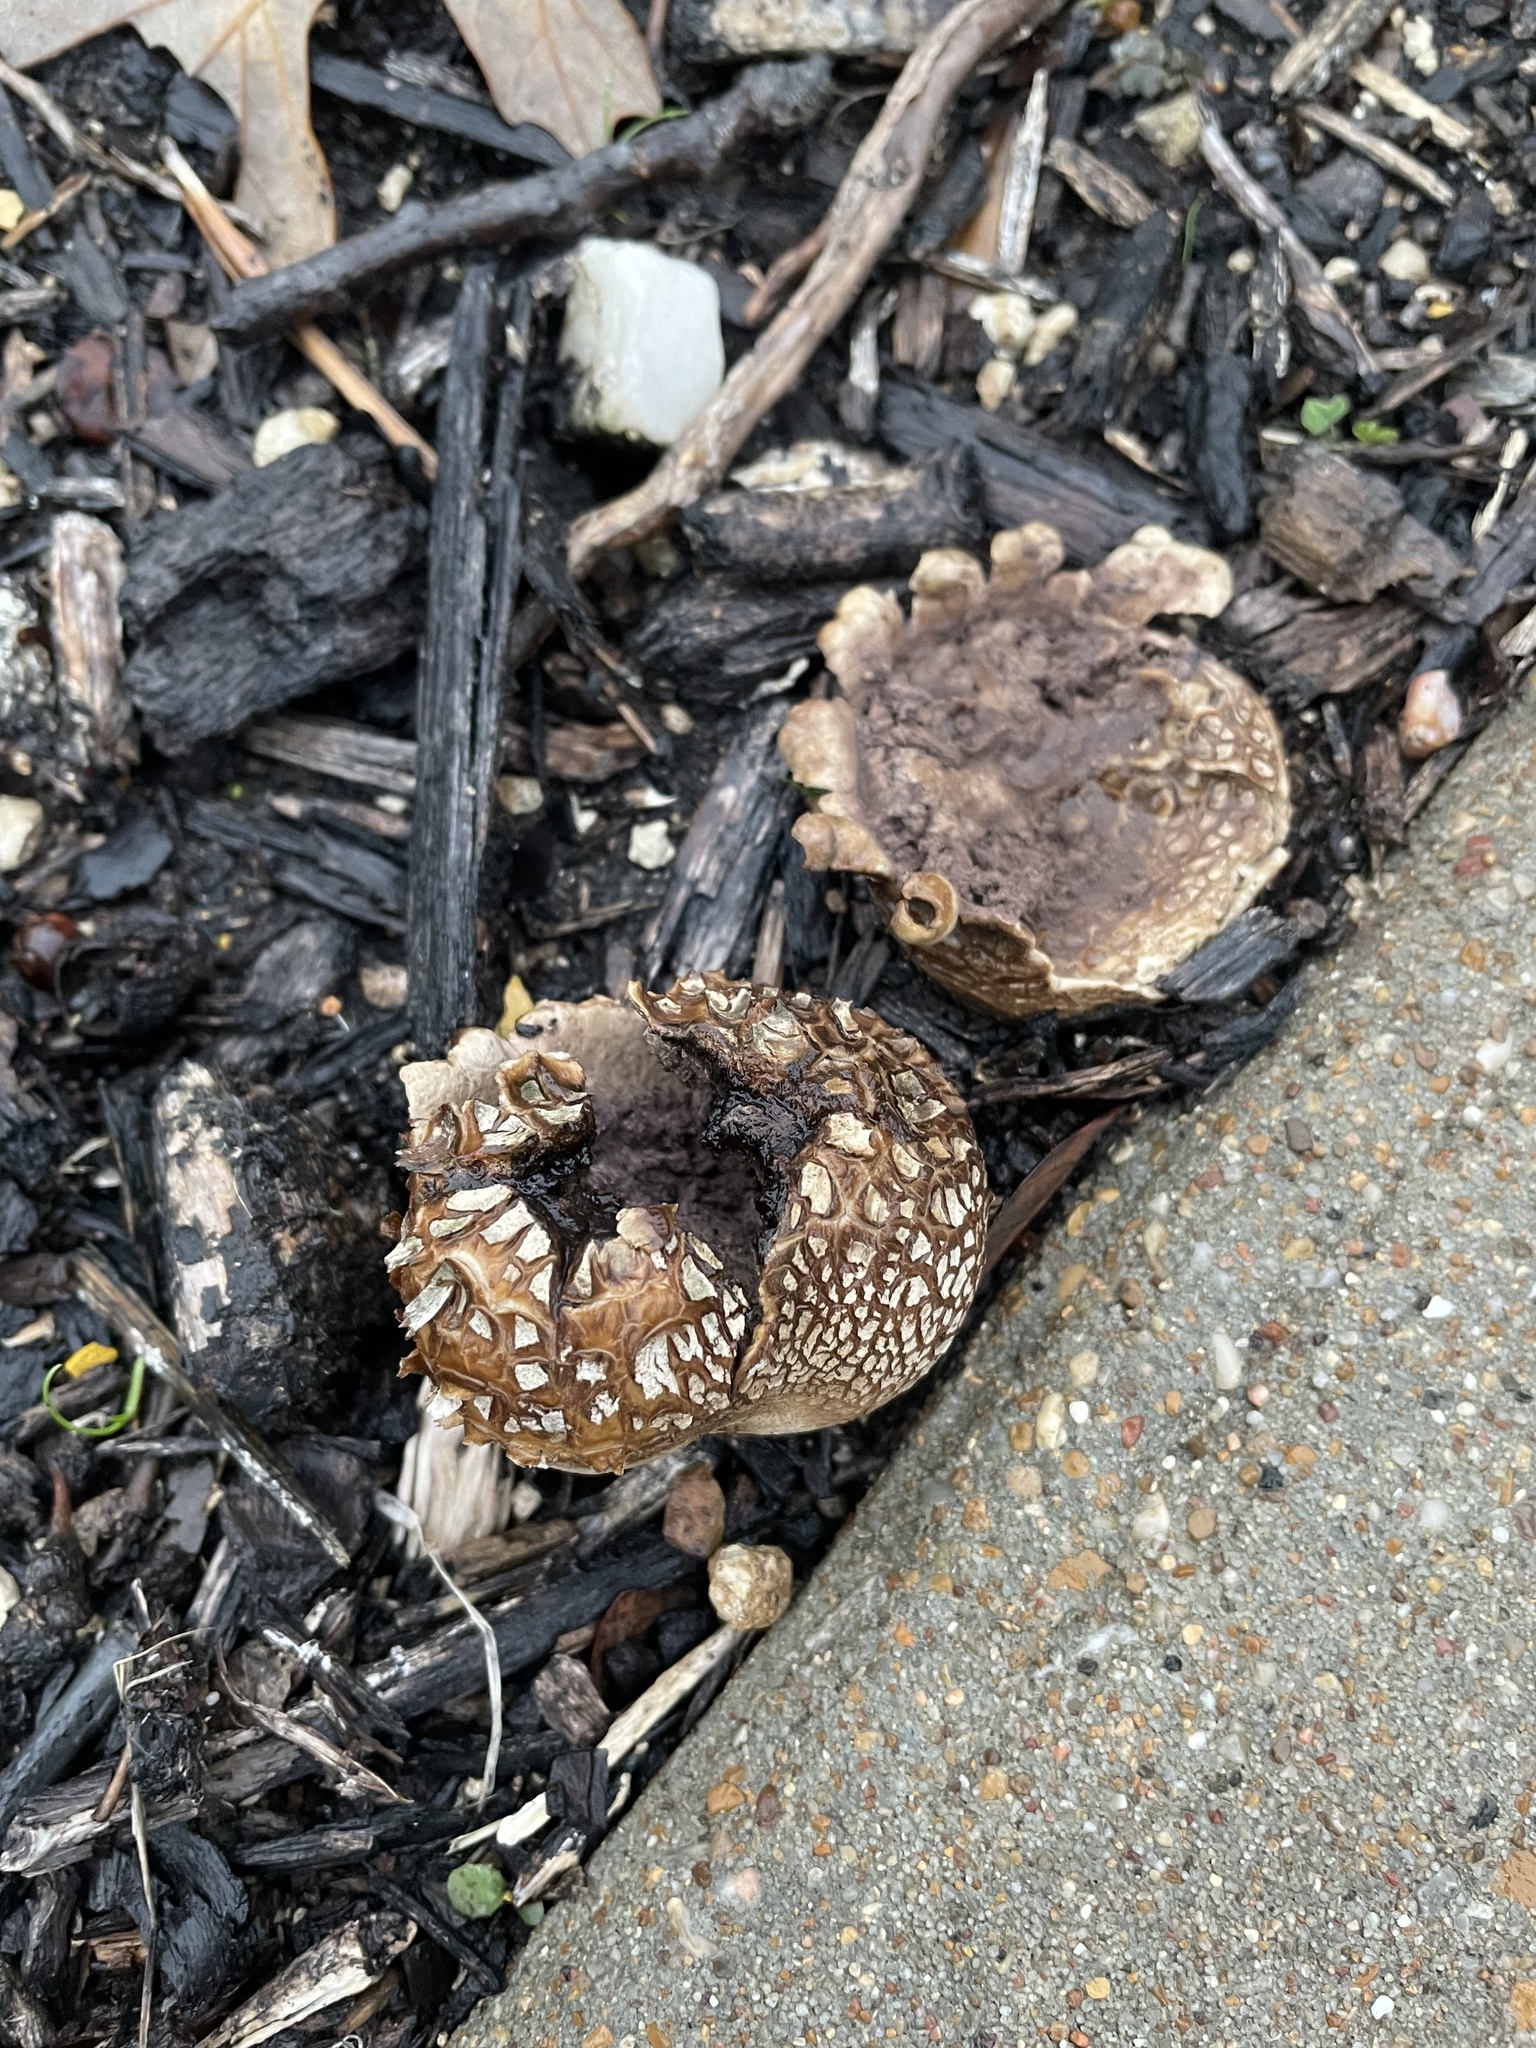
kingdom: Fungi
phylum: Basidiomycota
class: Agaricomycetes
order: Boletales
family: Sclerodermataceae
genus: Scleroderma
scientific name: Scleroderma citrinum
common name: Common earthball
